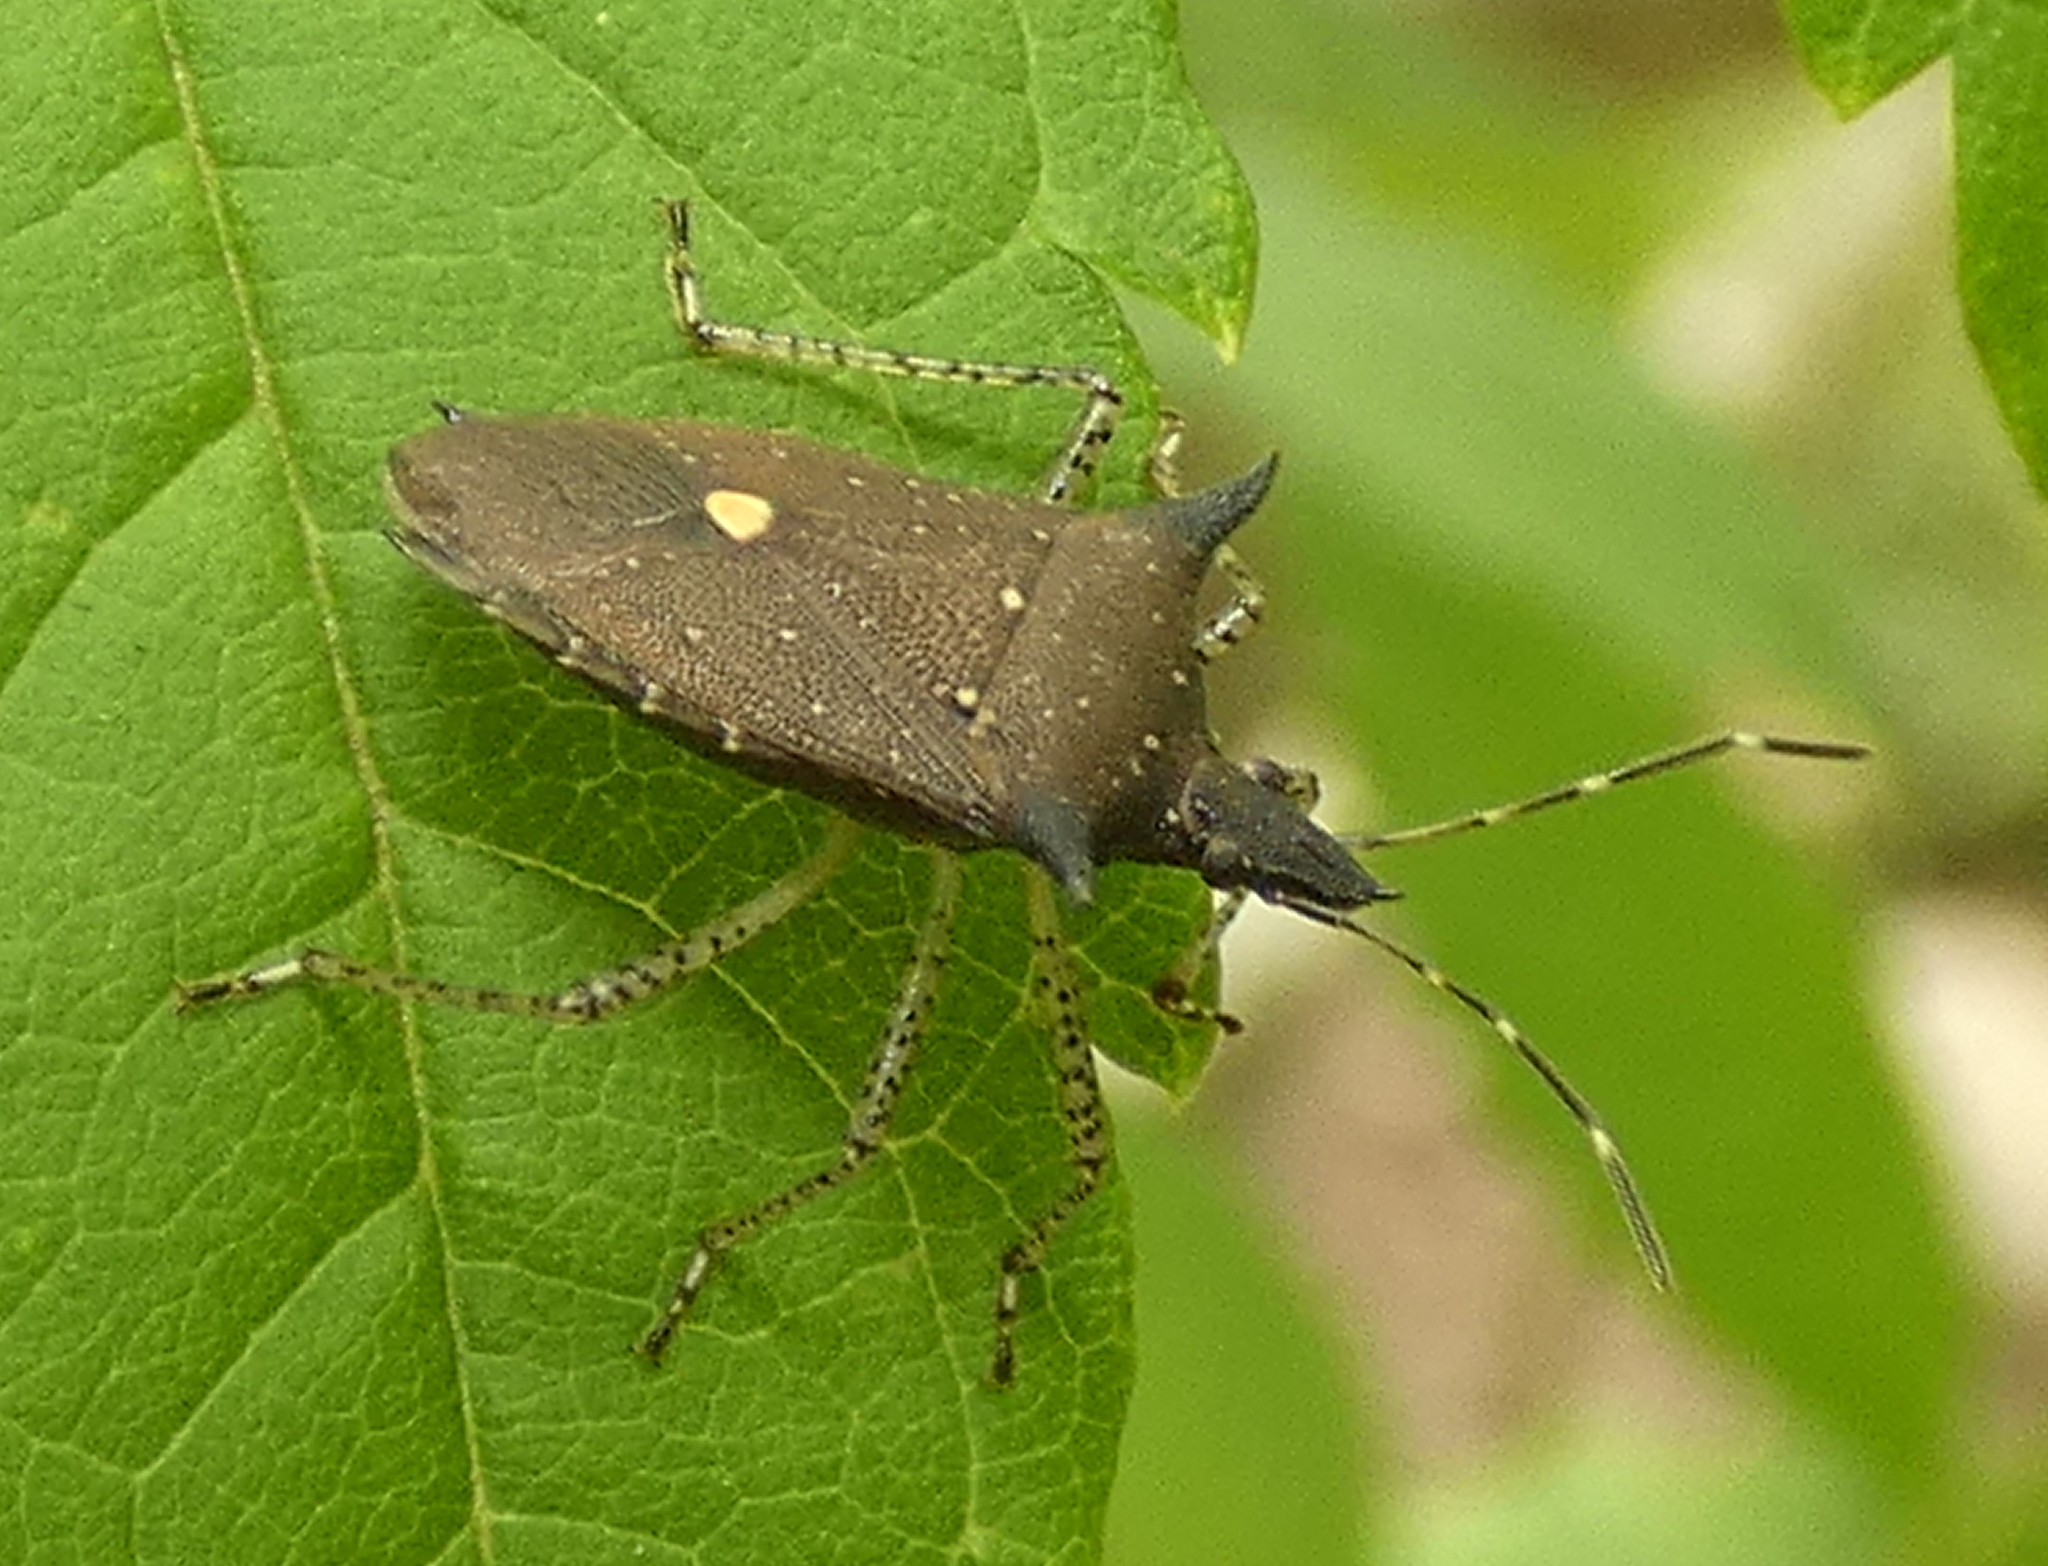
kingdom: Animalia
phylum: Arthropoda
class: Insecta
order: Hemiptera
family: Pentatomidae
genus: Proxys
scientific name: Proxys albopunctulatus
